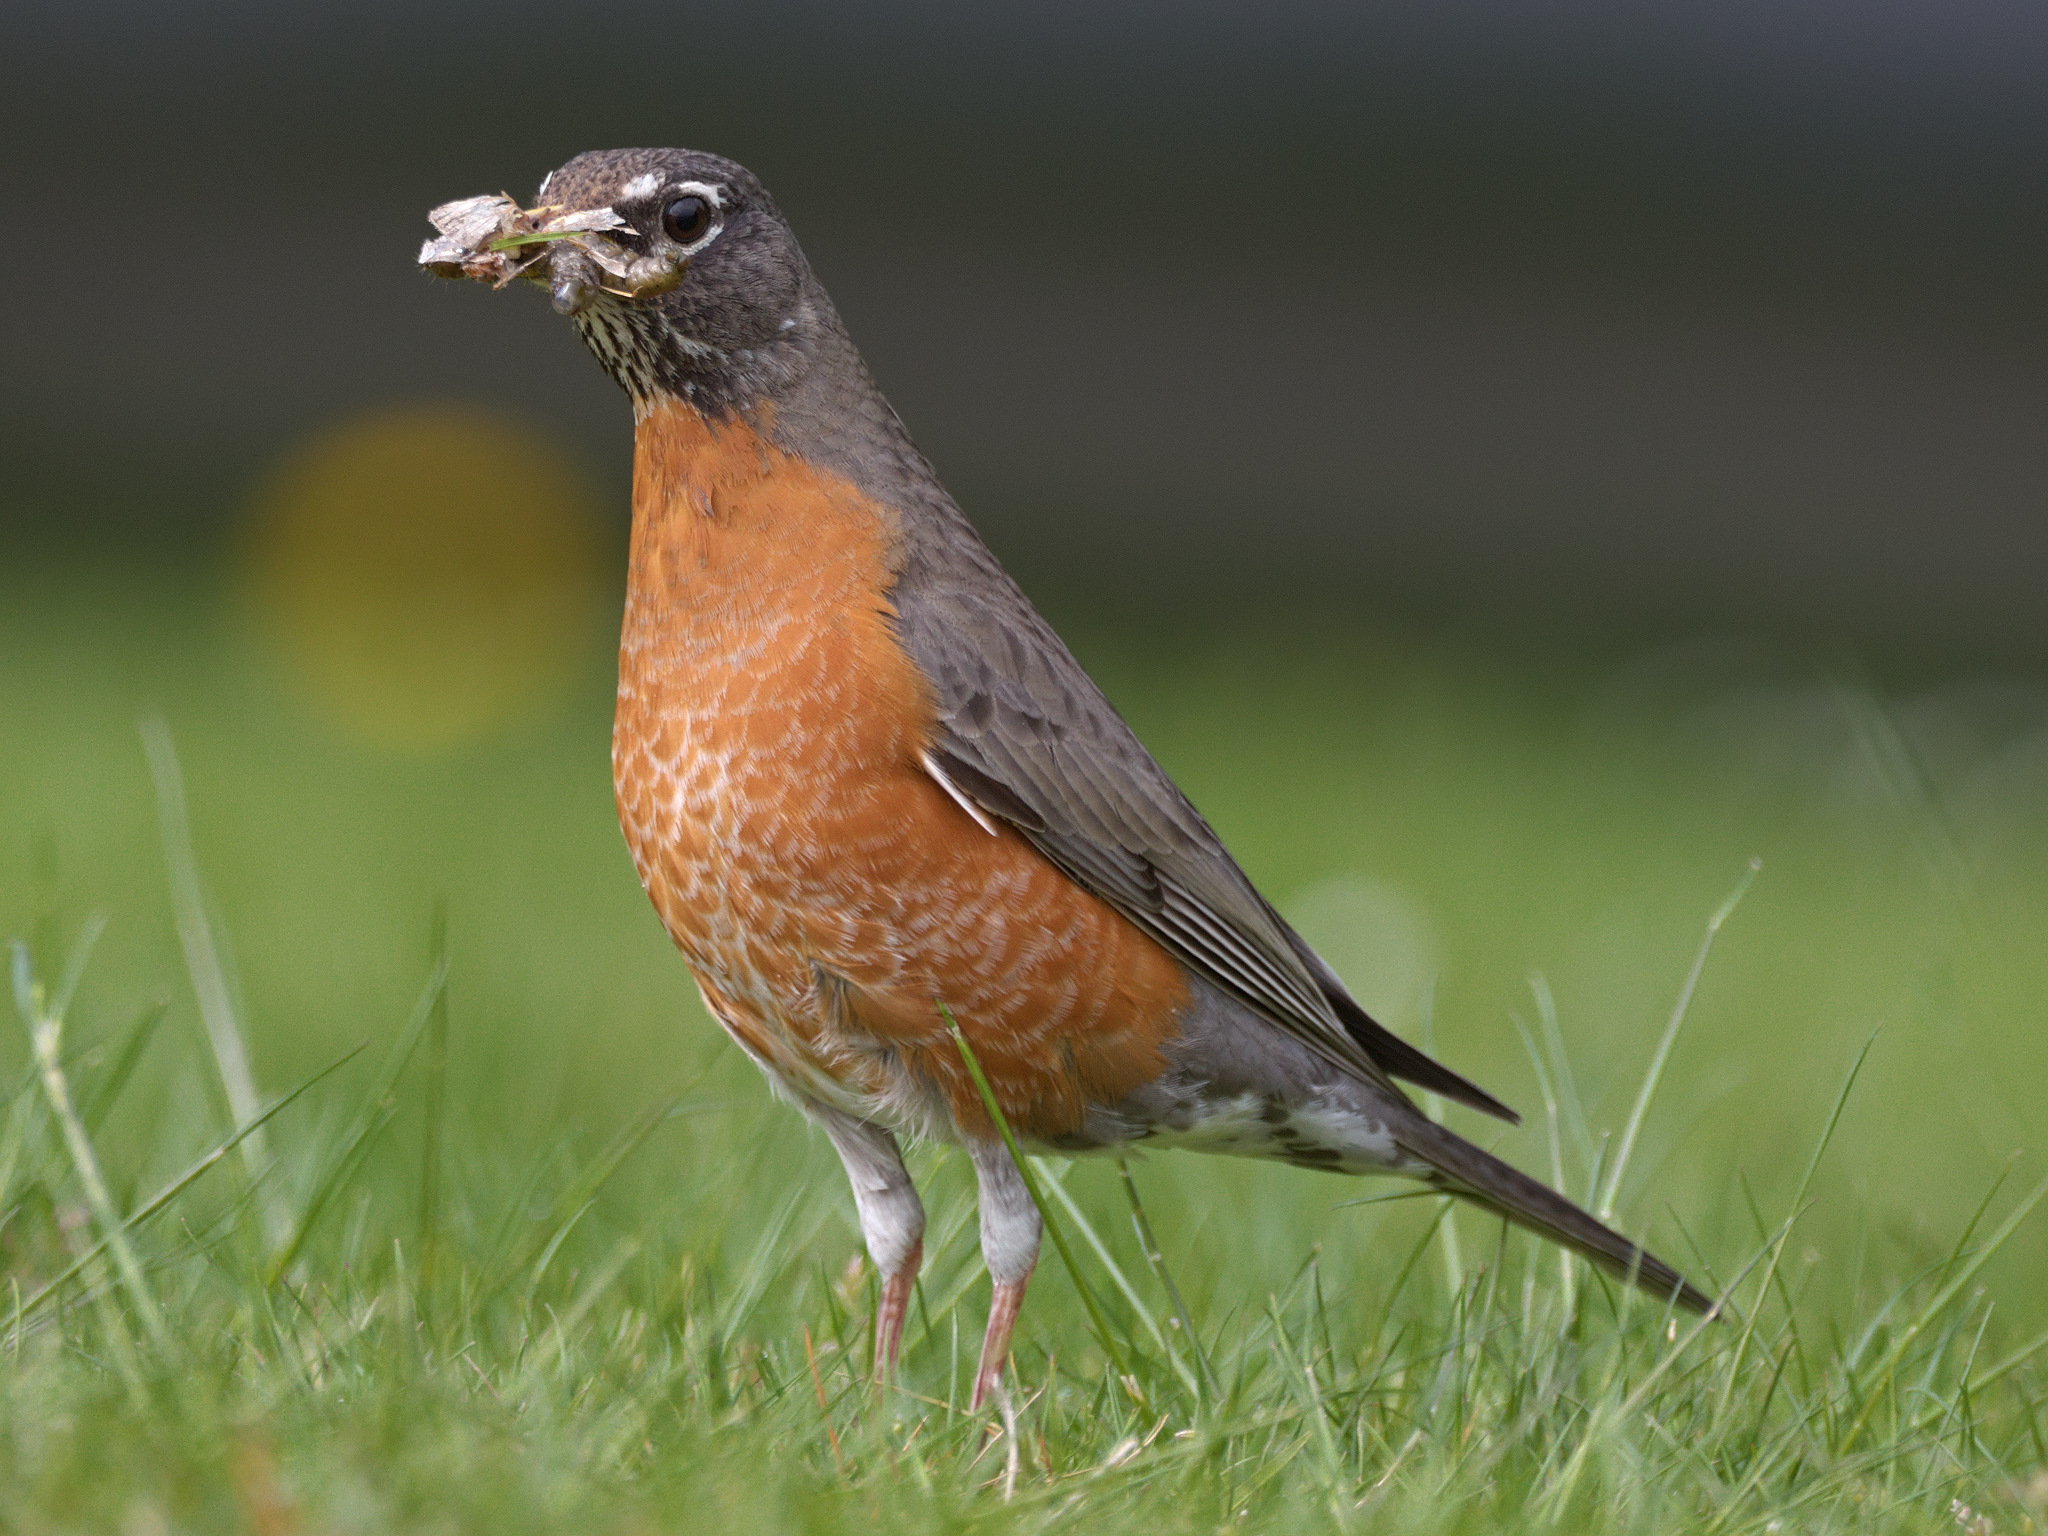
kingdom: Animalia
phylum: Chordata
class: Aves
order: Passeriformes
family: Turdidae
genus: Turdus
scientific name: Turdus migratorius
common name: American robin
